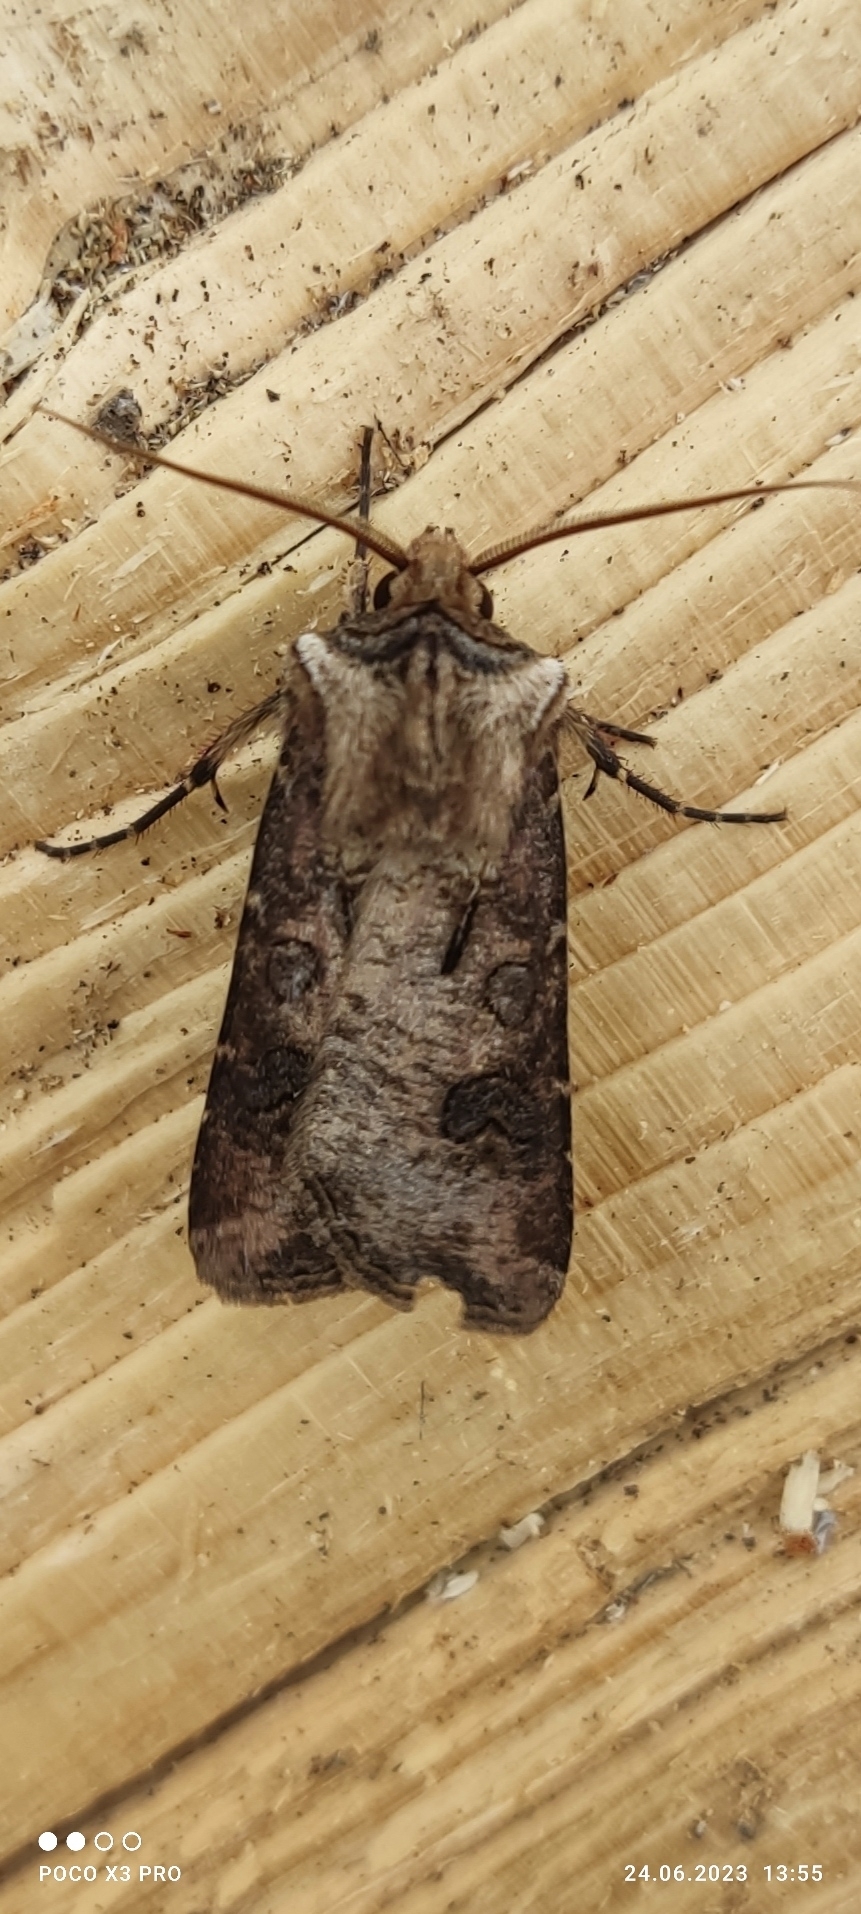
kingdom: Animalia
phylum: Arthropoda
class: Insecta
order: Lepidoptera
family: Noctuidae
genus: Agrotis
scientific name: Agrotis clavis
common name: Heart and club
